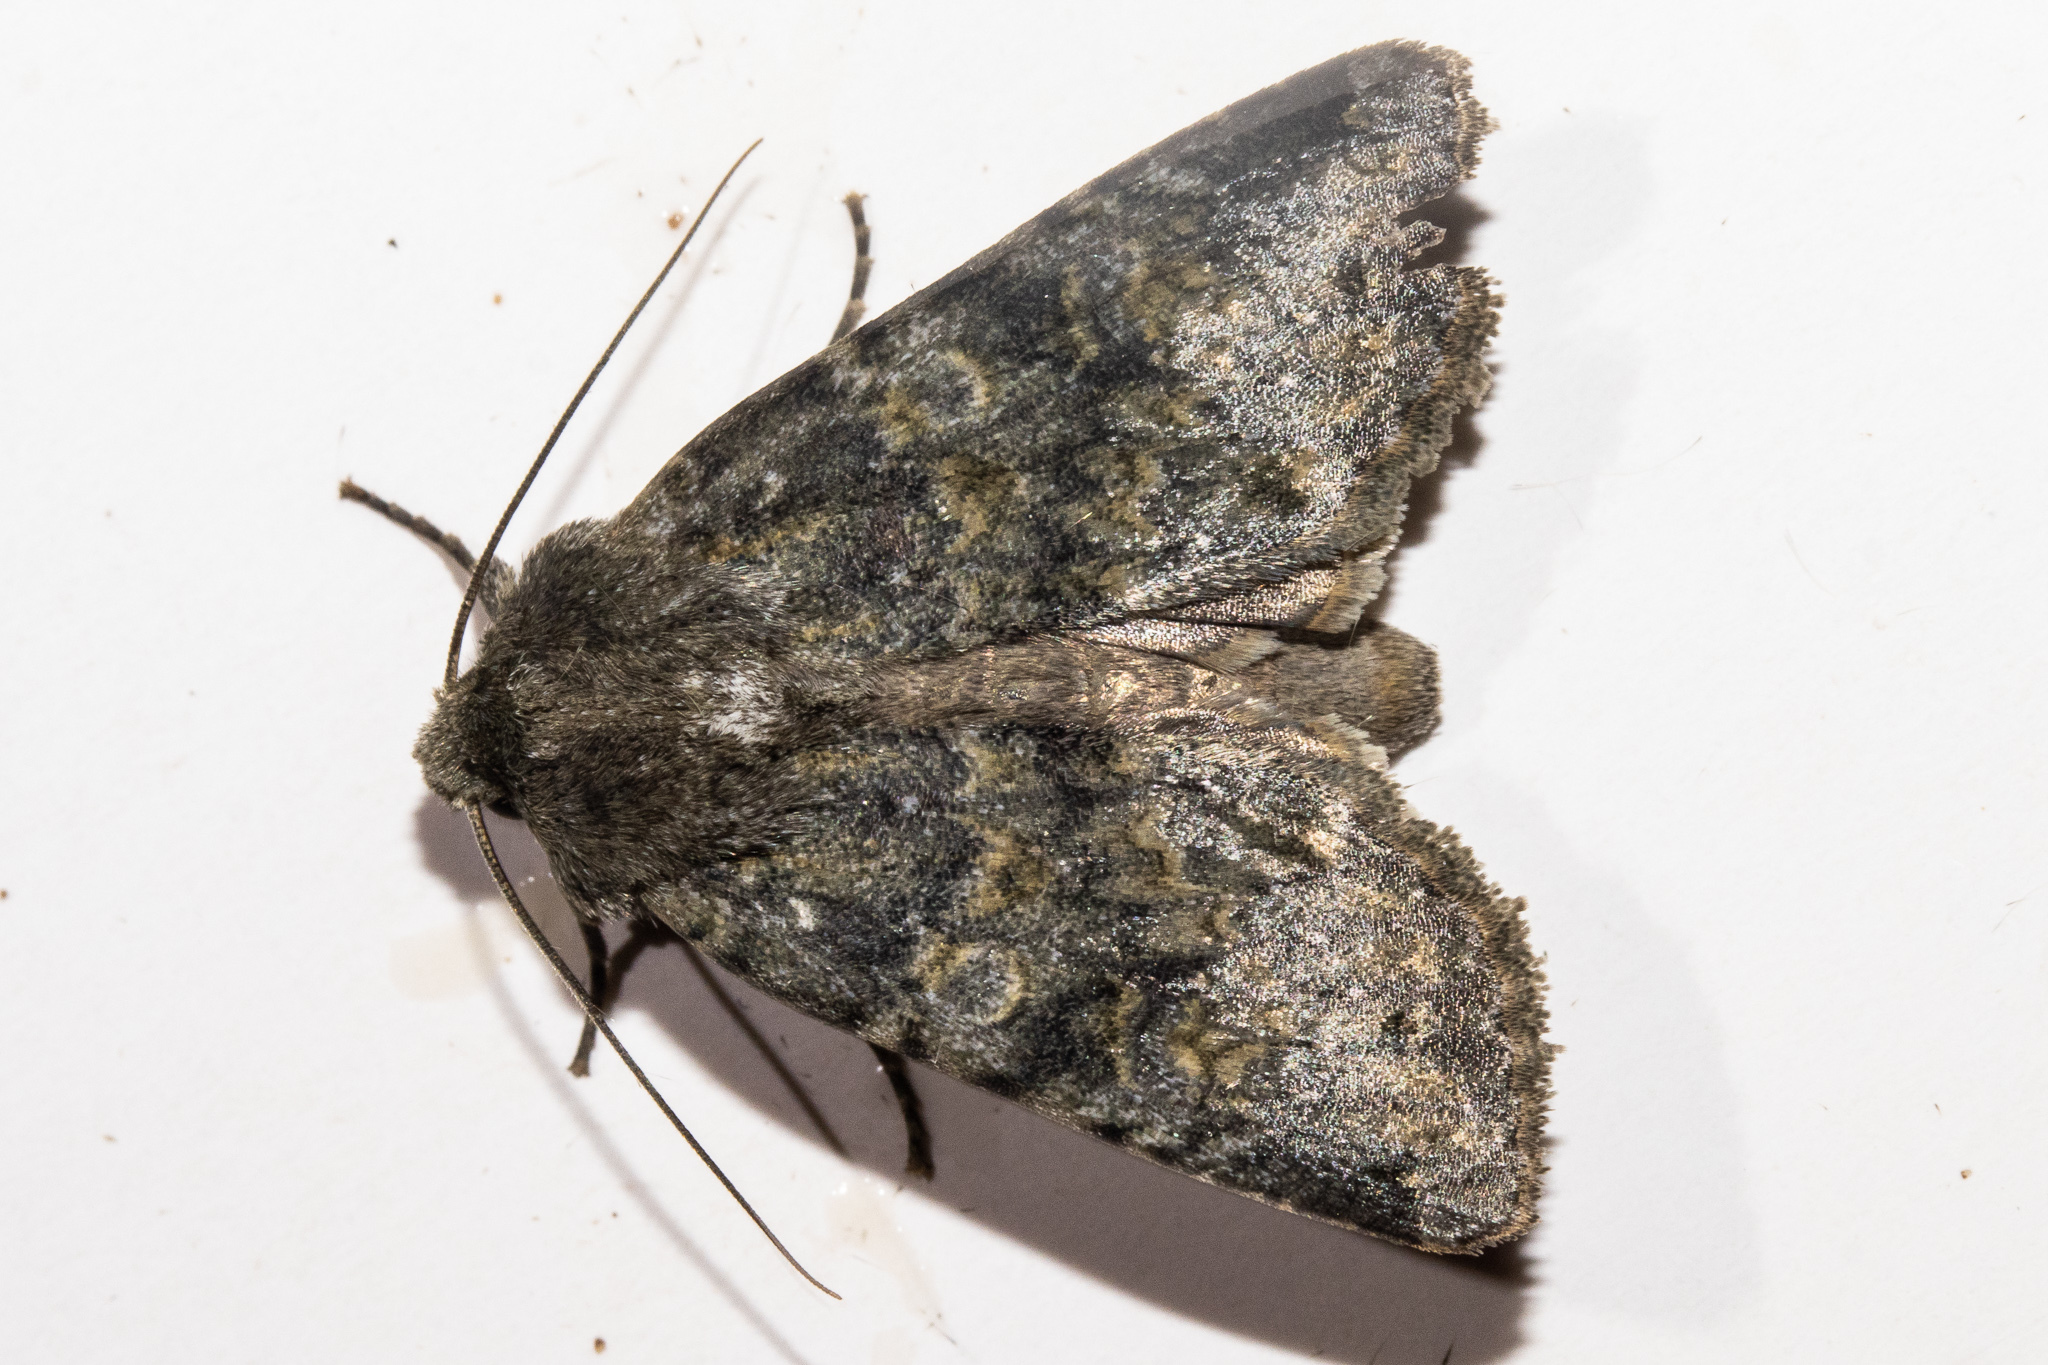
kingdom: Animalia
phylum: Arthropoda
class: Insecta
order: Lepidoptera
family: Noctuidae
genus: Ichneutica
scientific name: Ichneutica
